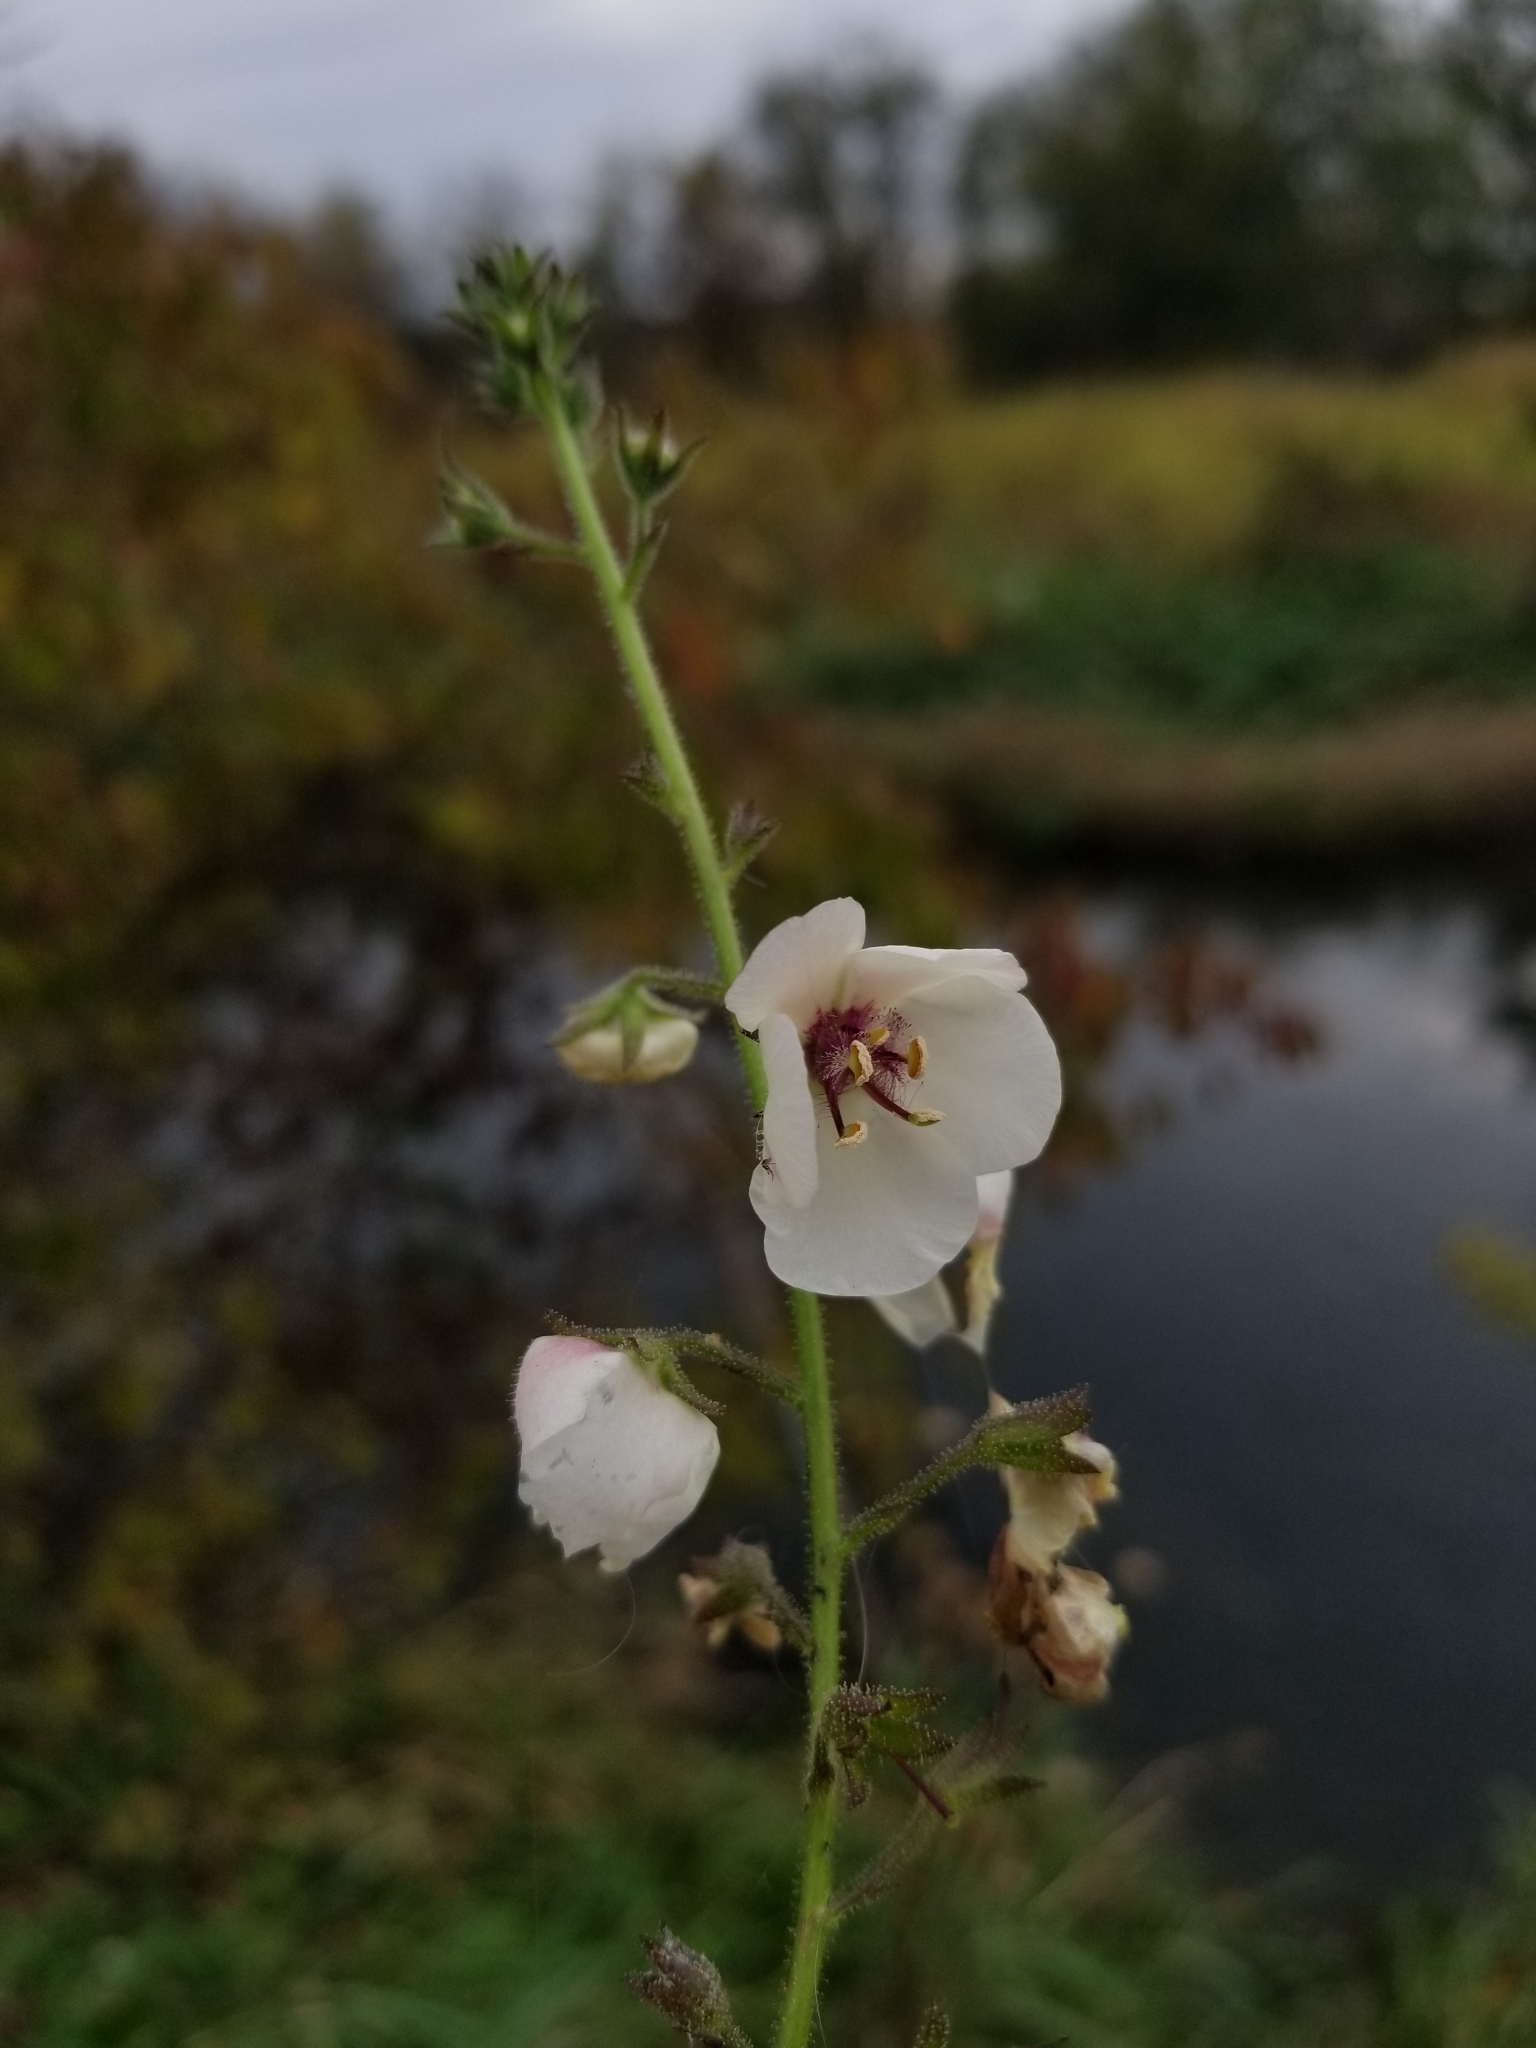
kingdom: Plantae
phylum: Tracheophyta
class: Magnoliopsida
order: Lamiales
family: Scrophulariaceae
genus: Verbascum
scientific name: Verbascum blattaria
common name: Moth mullein
